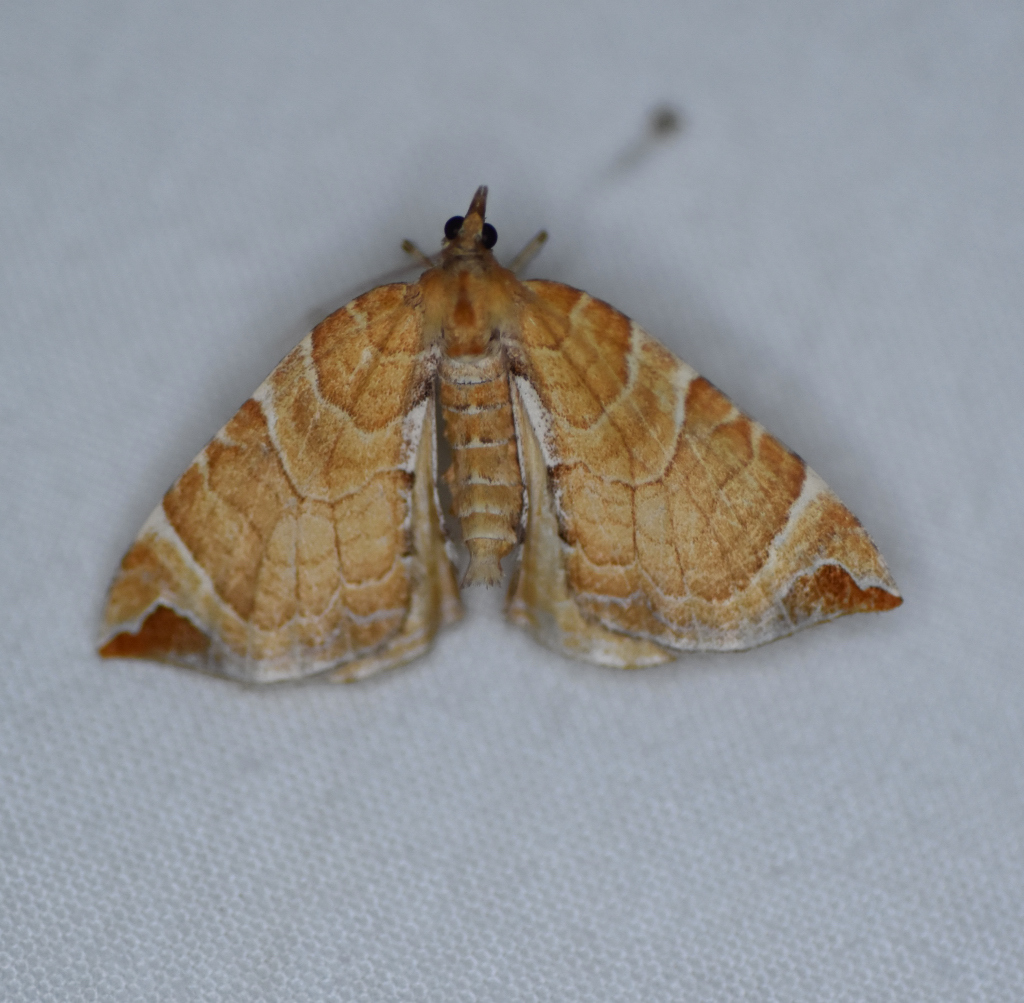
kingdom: Animalia
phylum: Arthropoda
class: Insecta
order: Lepidoptera
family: Geometridae
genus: Eulithis
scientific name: Eulithis molliculata
